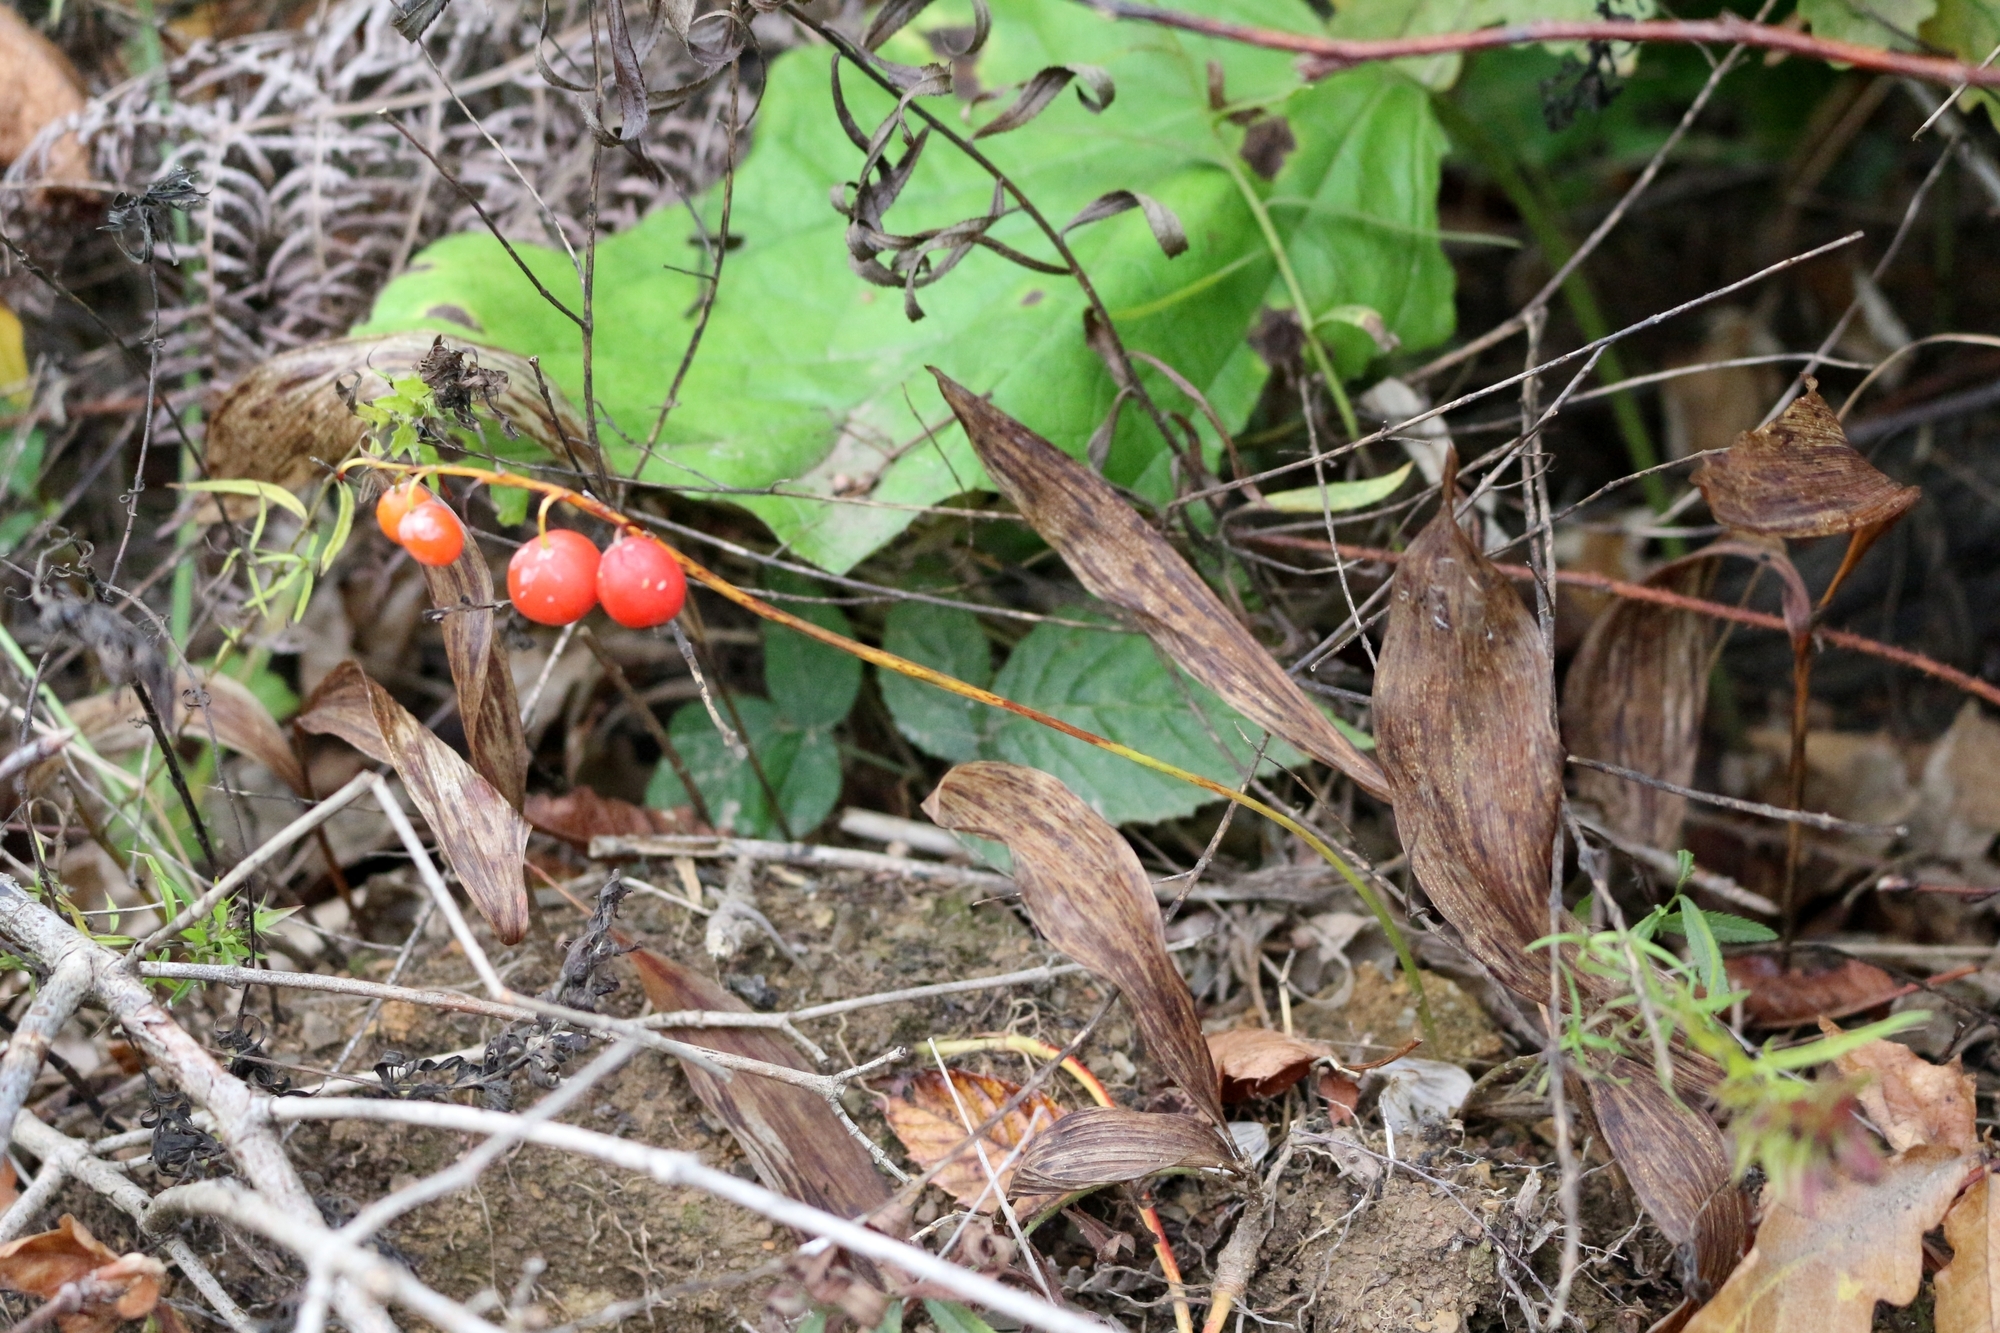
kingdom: Plantae
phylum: Tracheophyta
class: Liliopsida
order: Asparagales
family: Asparagaceae
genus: Convallaria
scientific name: Convallaria majalis
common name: Lily-of-the-valley
